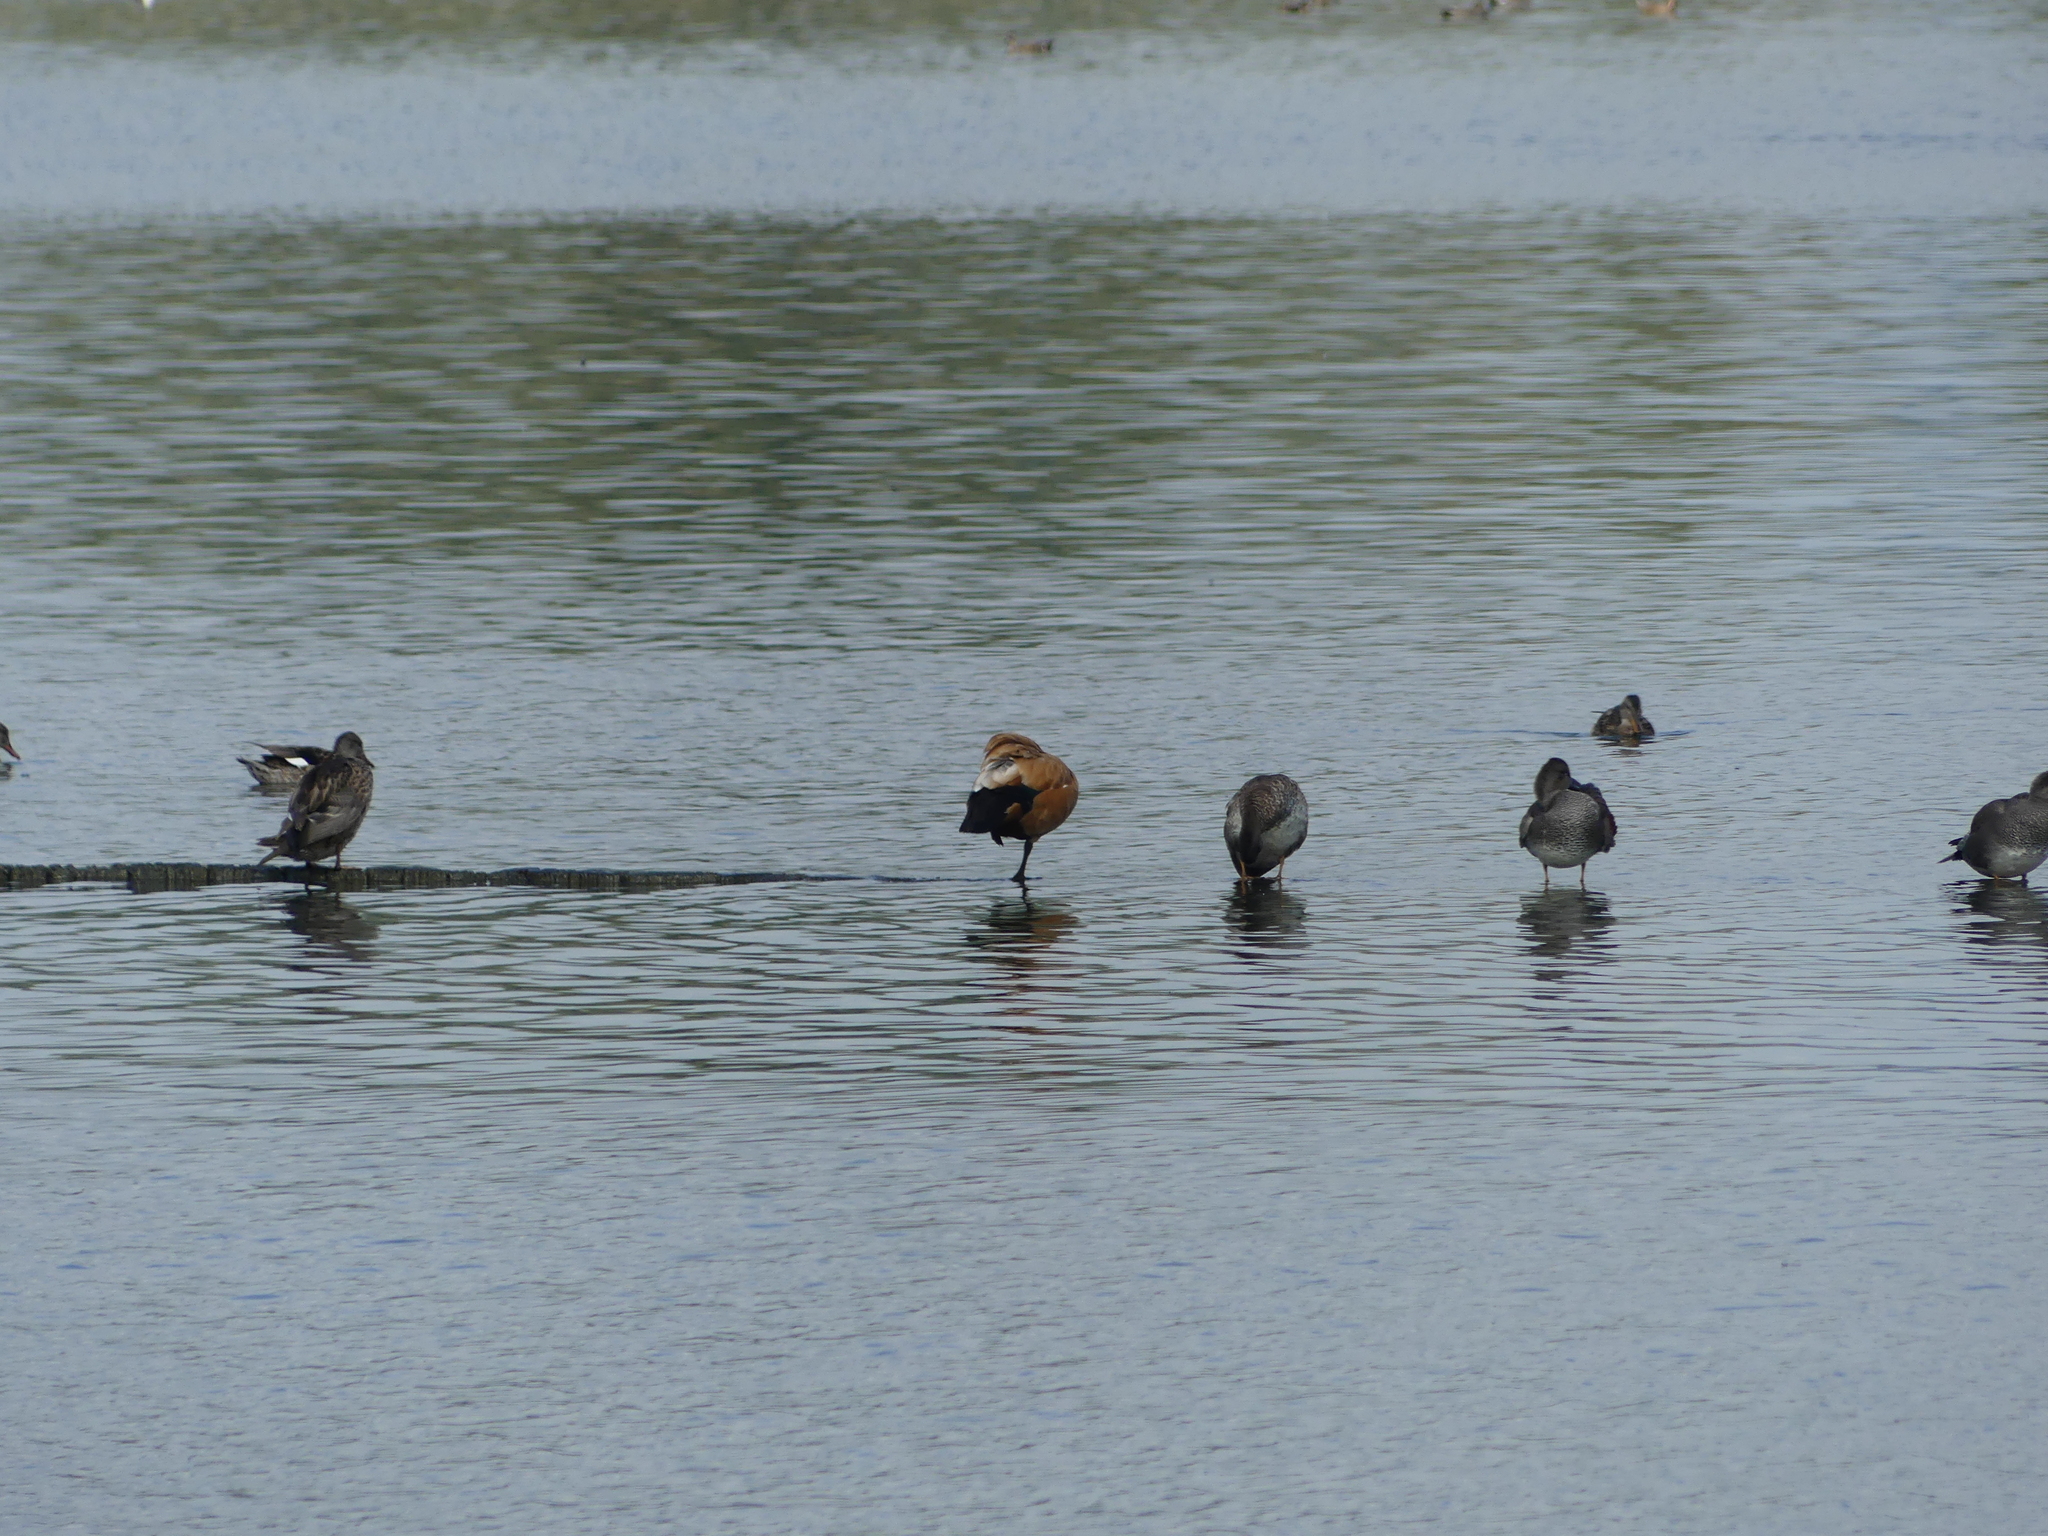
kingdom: Animalia
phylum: Chordata
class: Aves
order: Anseriformes
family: Anatidae
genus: Mareca
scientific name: Mareca strepera
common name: Gadwall
